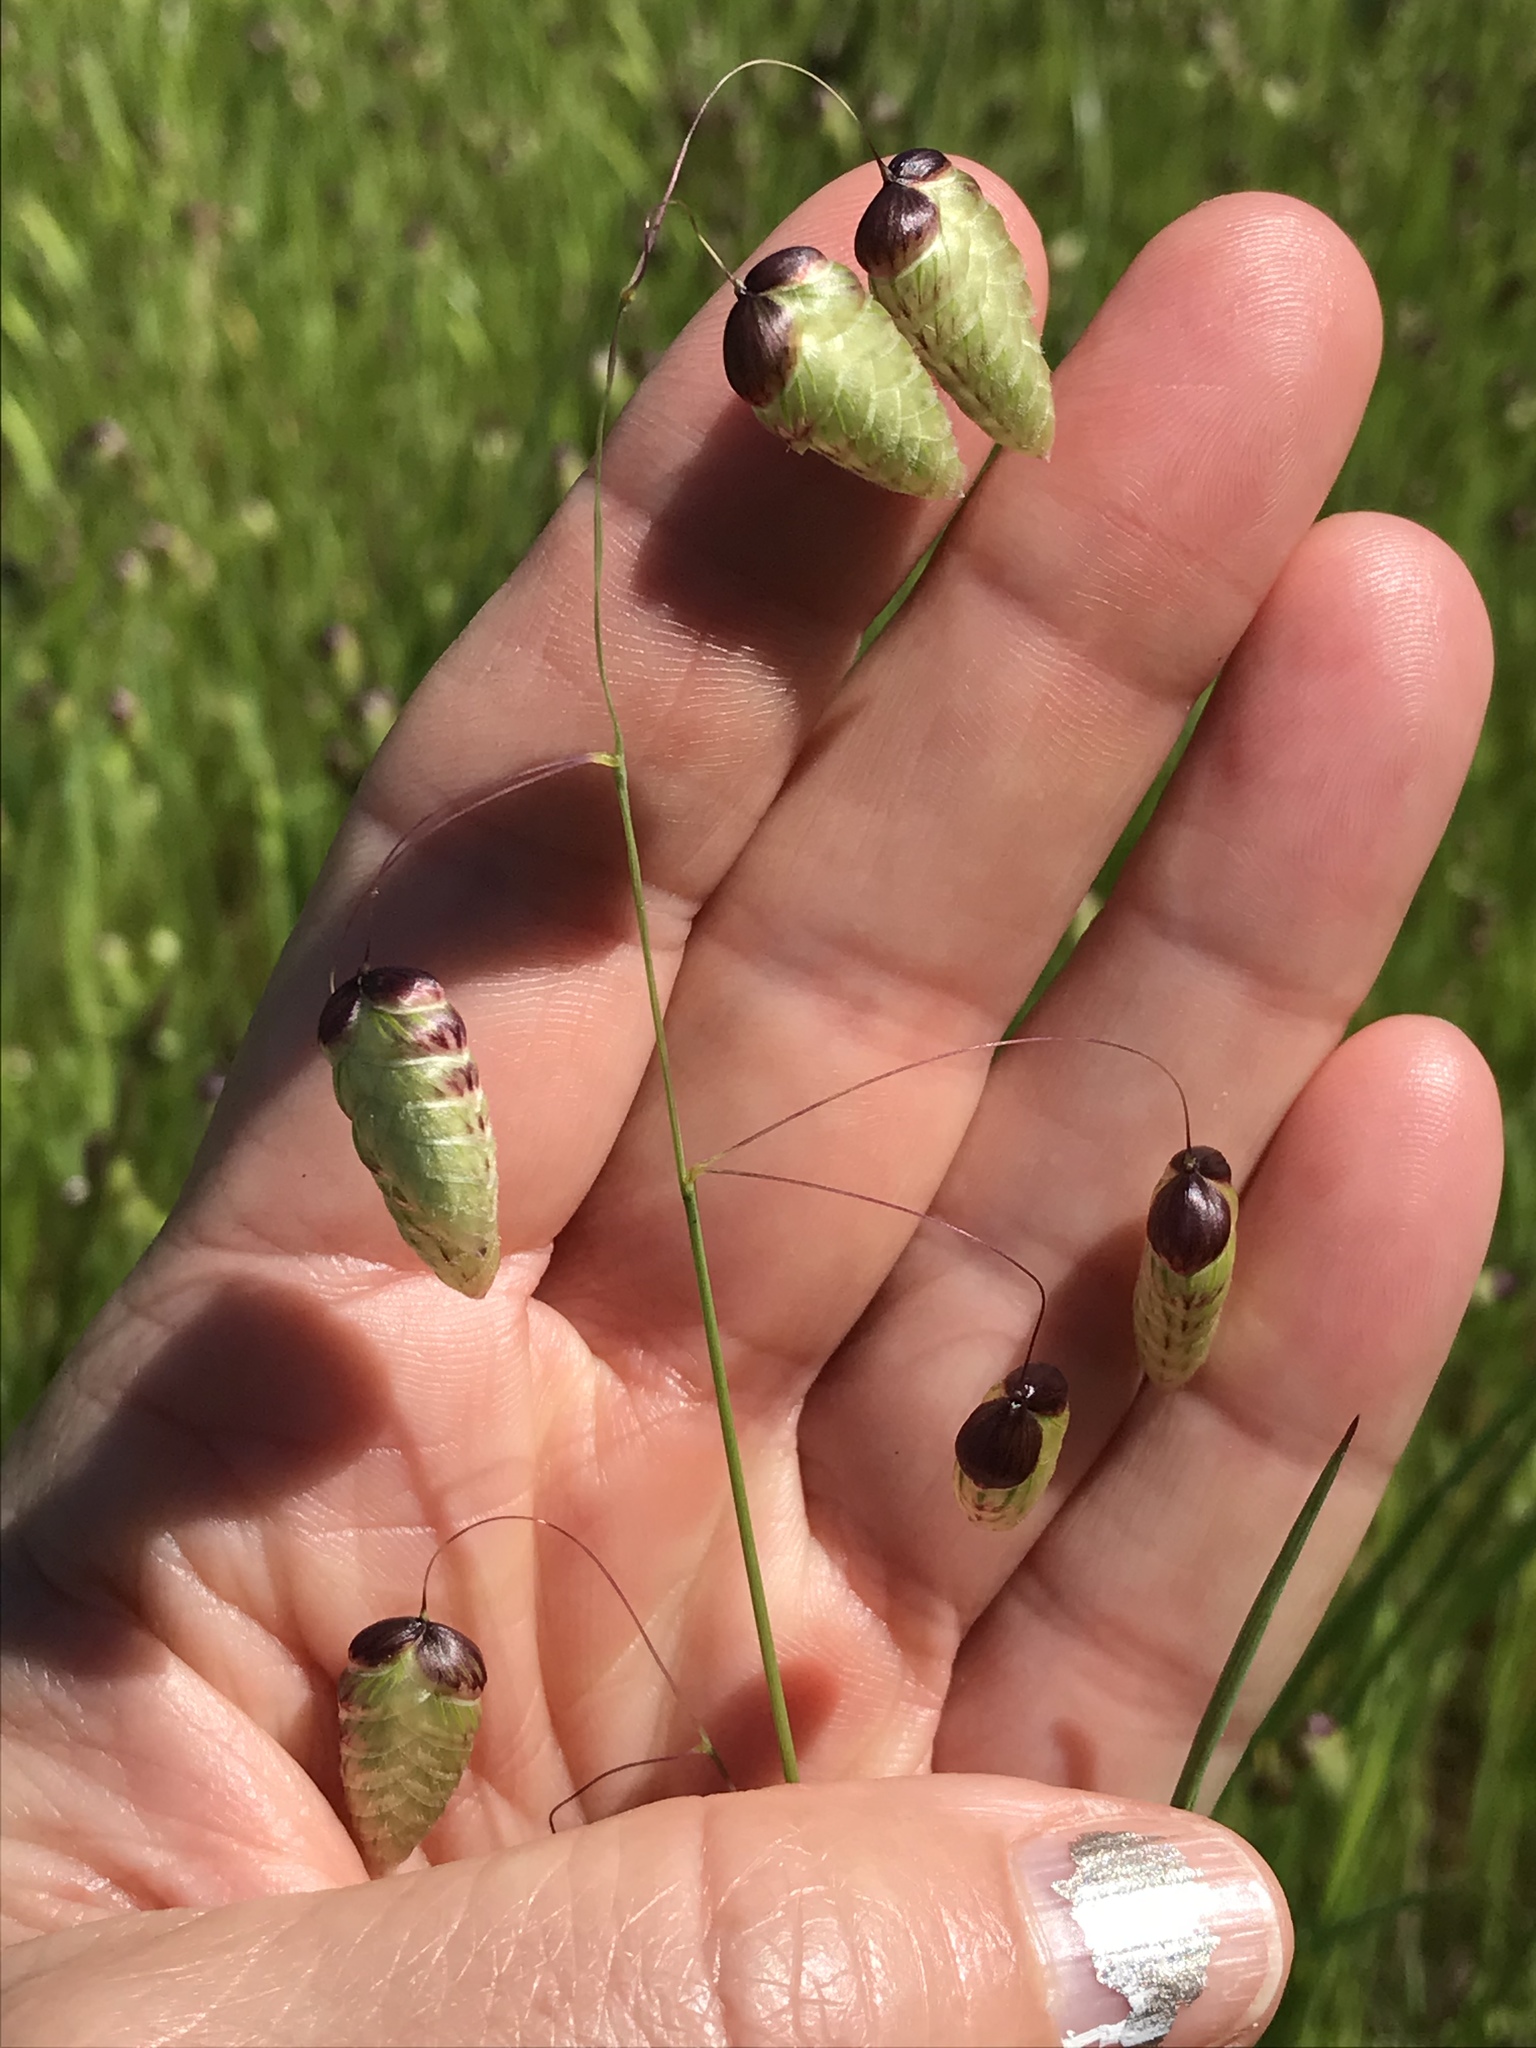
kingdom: Plantae
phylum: Tracheophyta
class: Liliopsida
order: Poales
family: Poaceae
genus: Briza
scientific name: Briza maxima
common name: Big quakinggrass
